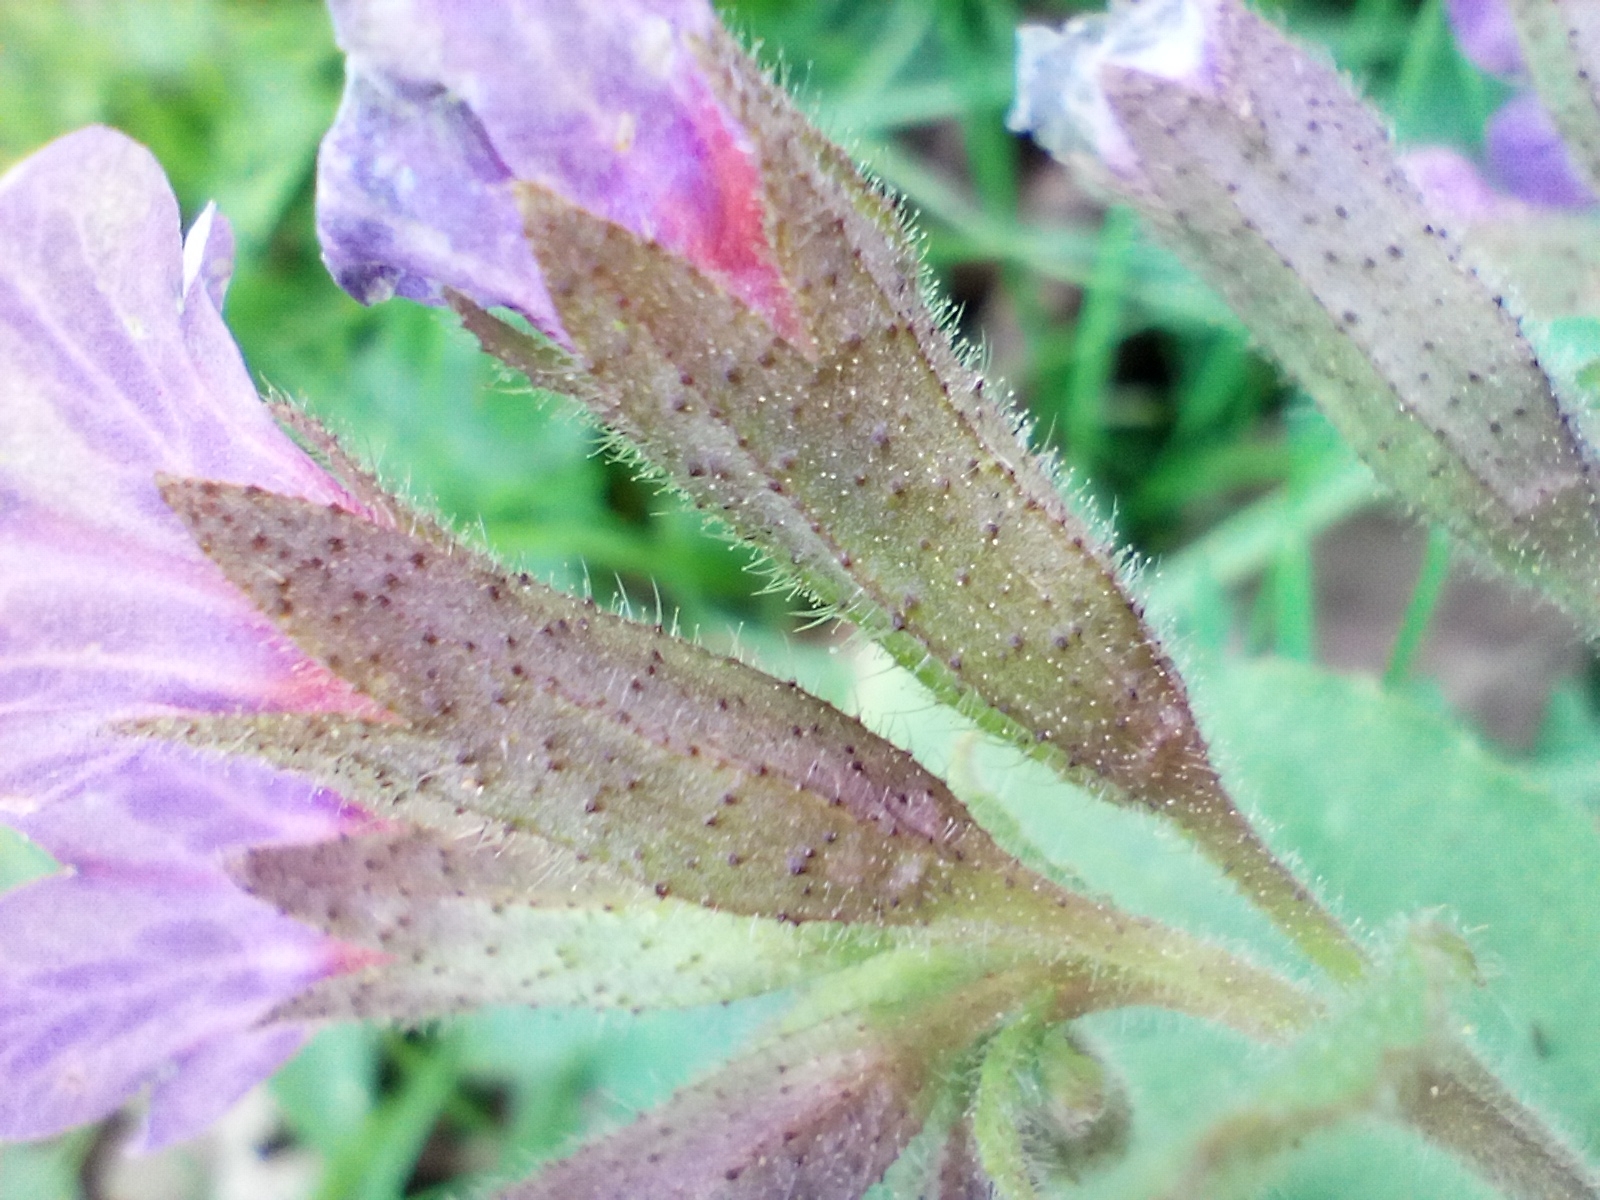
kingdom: Plantae
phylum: Tracheophyta
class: Magnoliopsida
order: Boraginales
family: Boraginaceae
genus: Pulmonaria
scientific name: Pulmonaria obscura
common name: Suffolk lungwort
